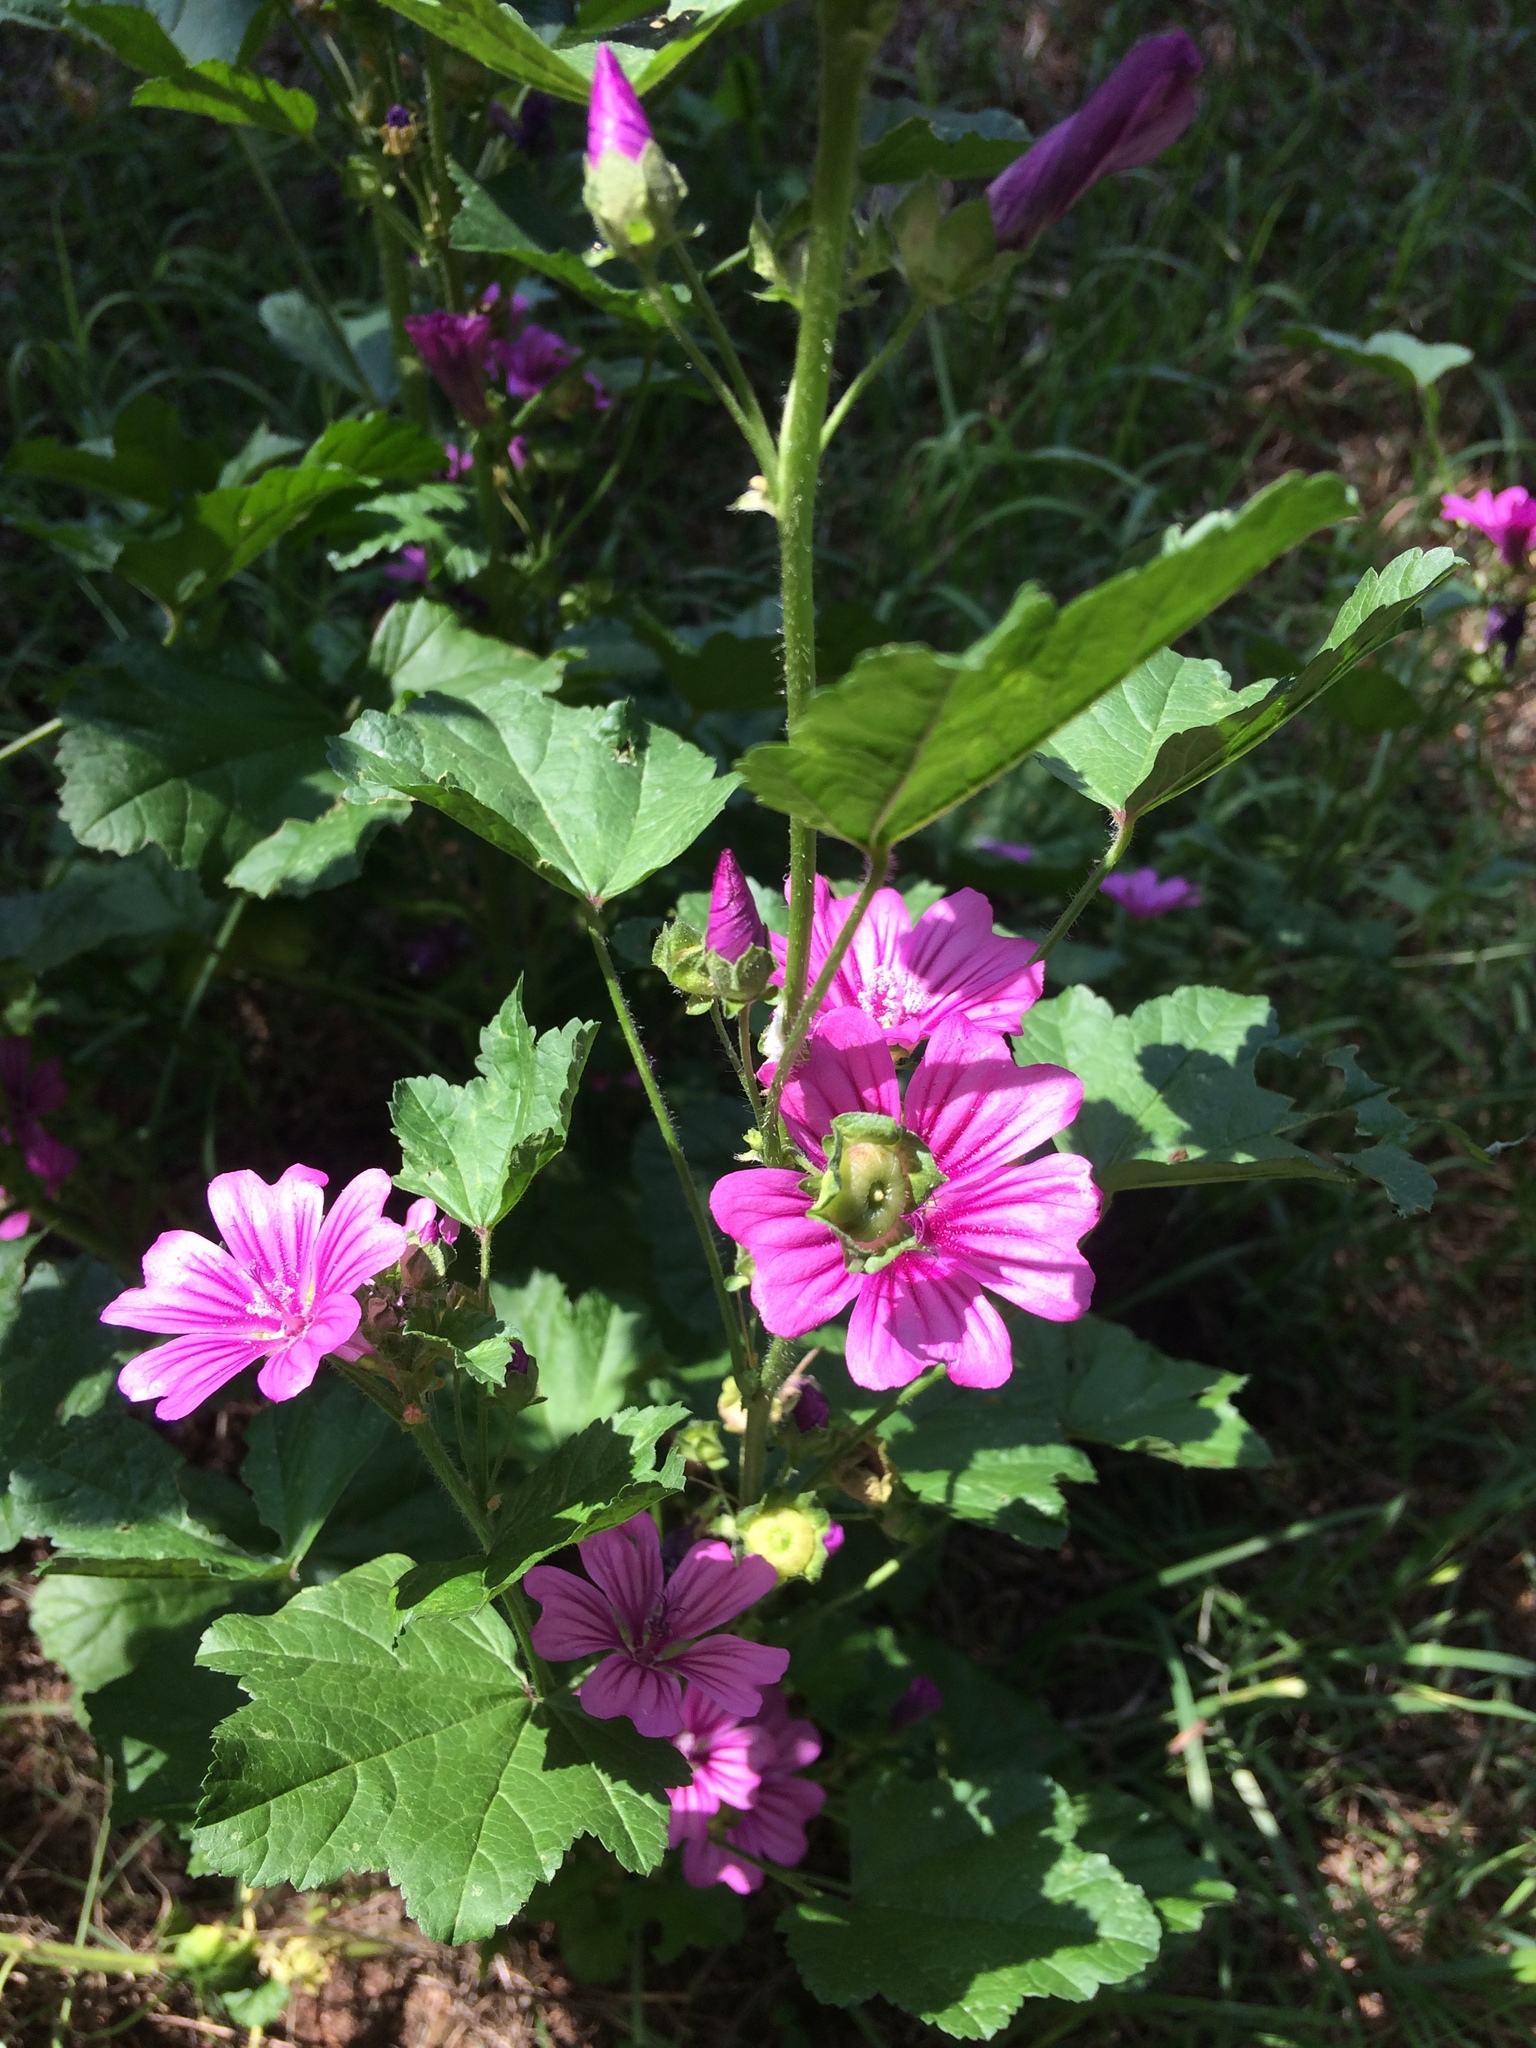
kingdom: Plantae
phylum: Tracheophyta
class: Magnoliopsida
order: Malvales
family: Malvaceae
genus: Malva
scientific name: Malva sylvestris
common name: Common mallow
